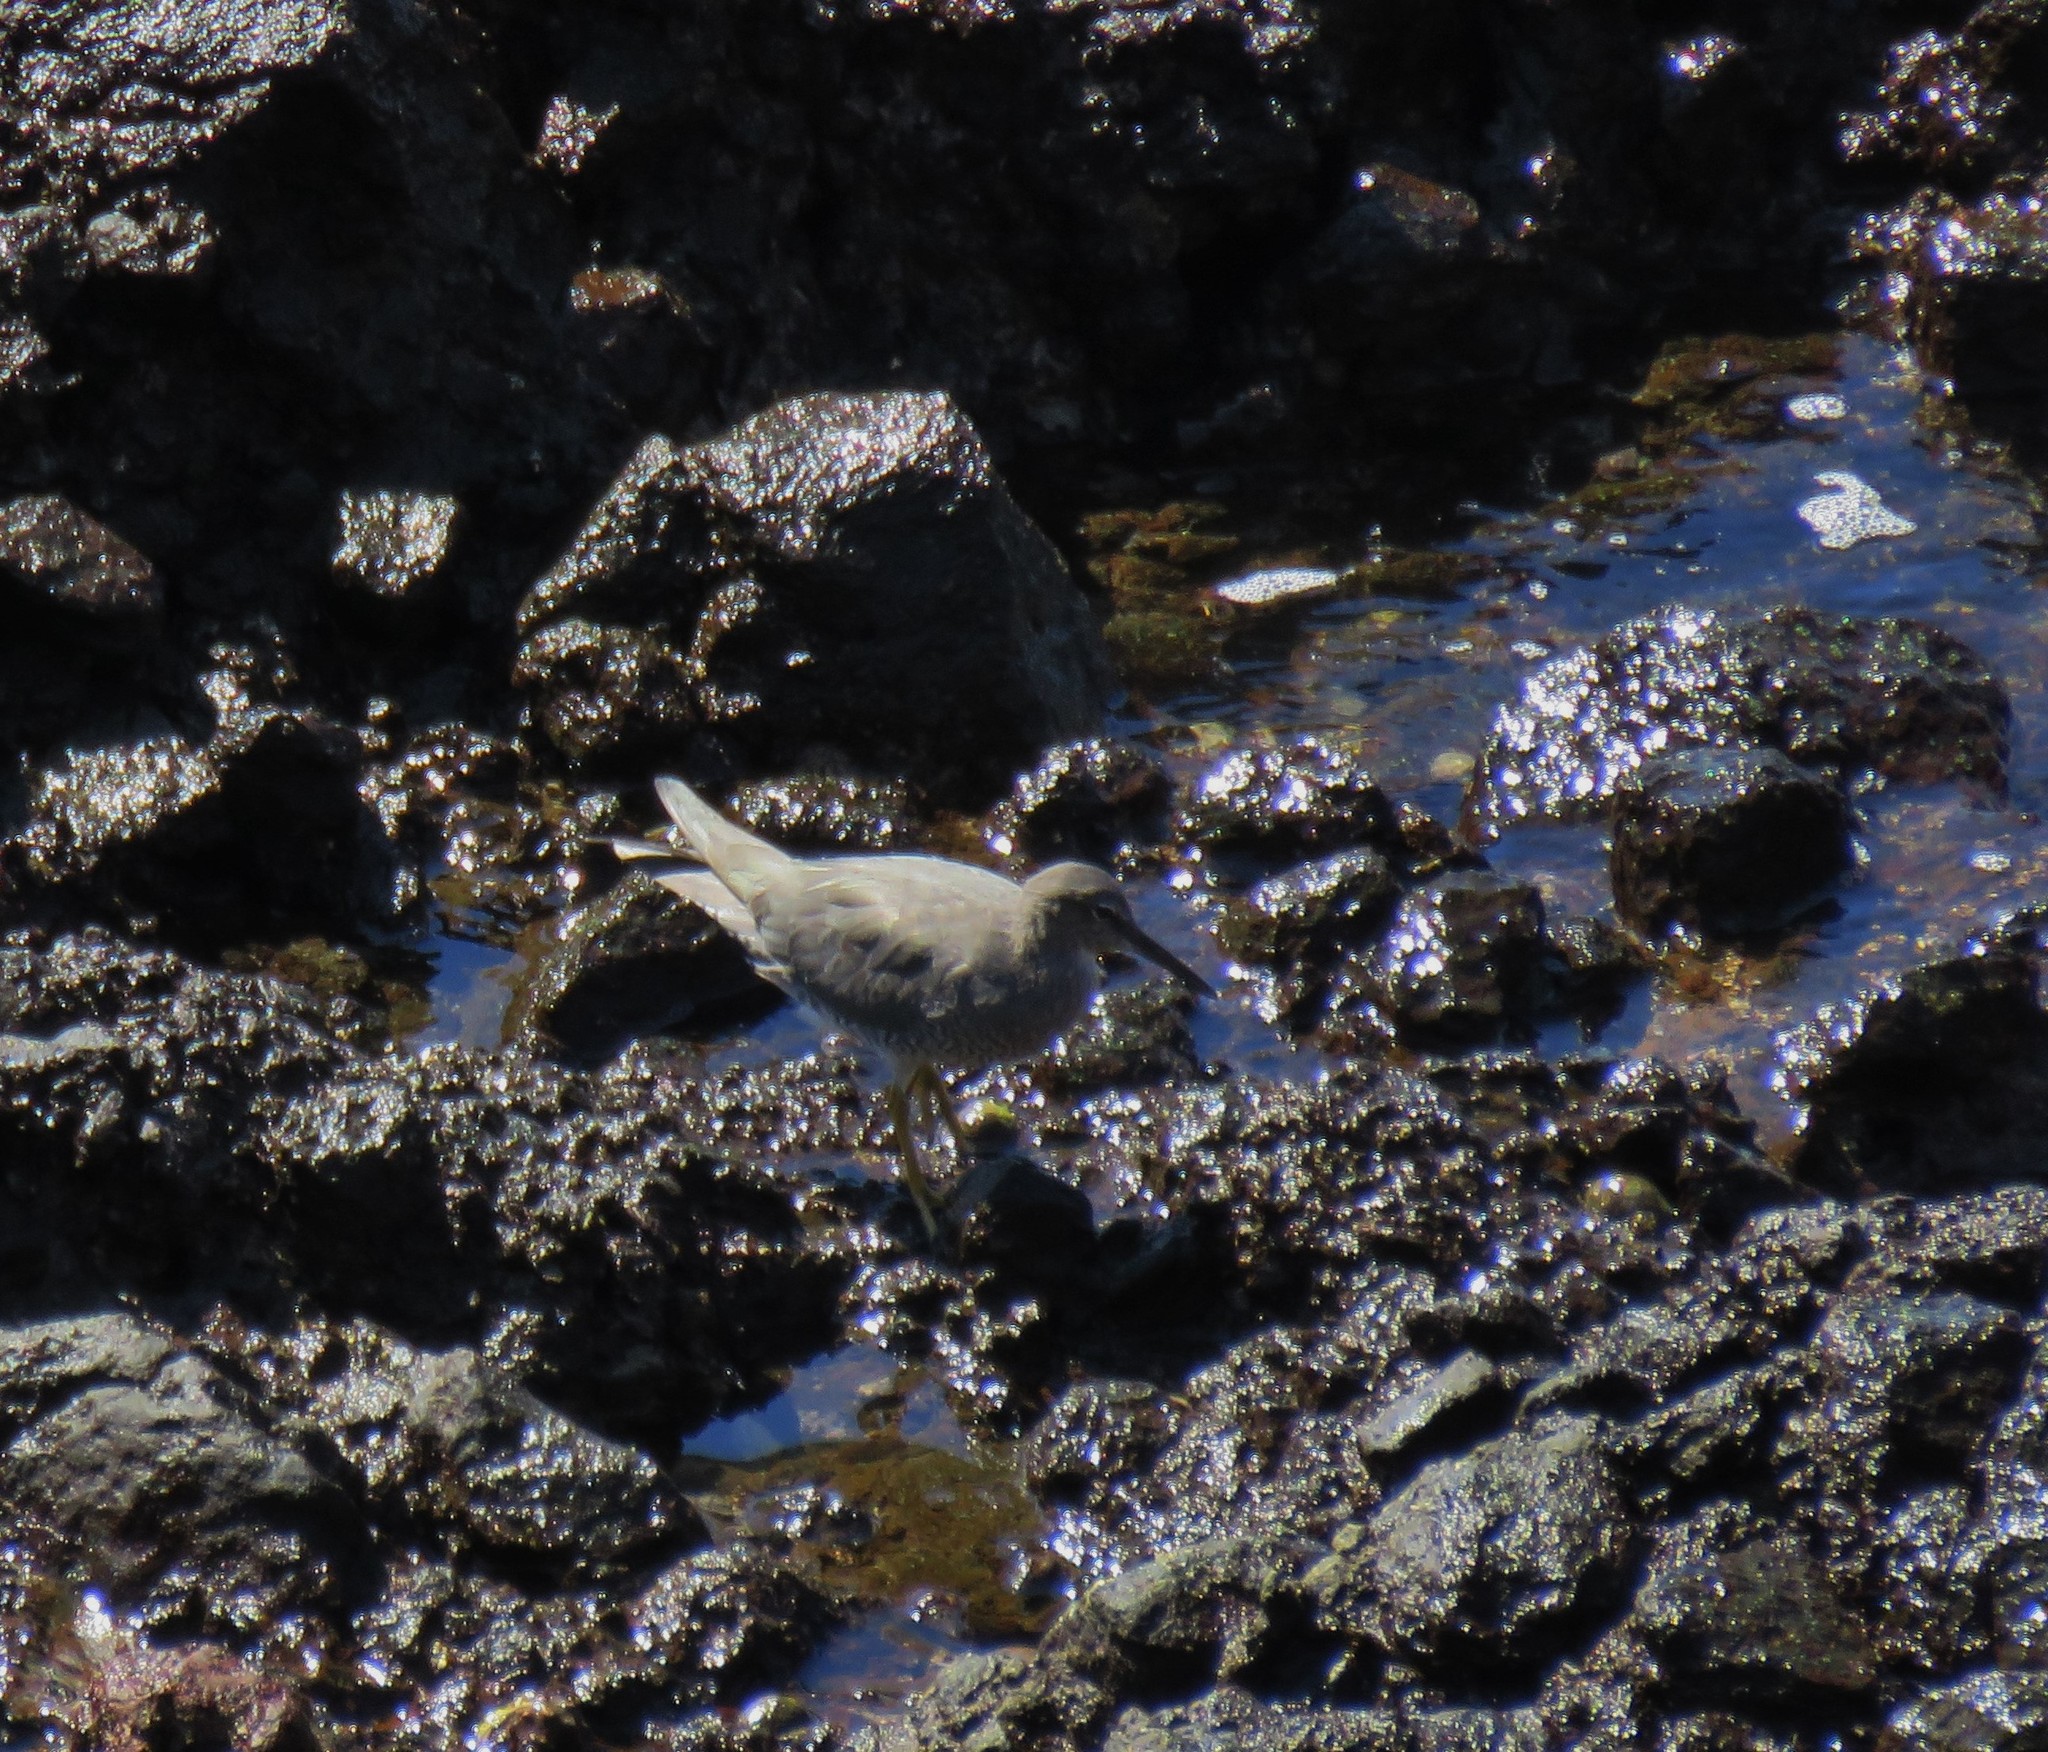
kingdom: Animalia
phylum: Chordata
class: Aves
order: Charadriiformes
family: Scolopacidae
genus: Tringa
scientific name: Tringa incana
